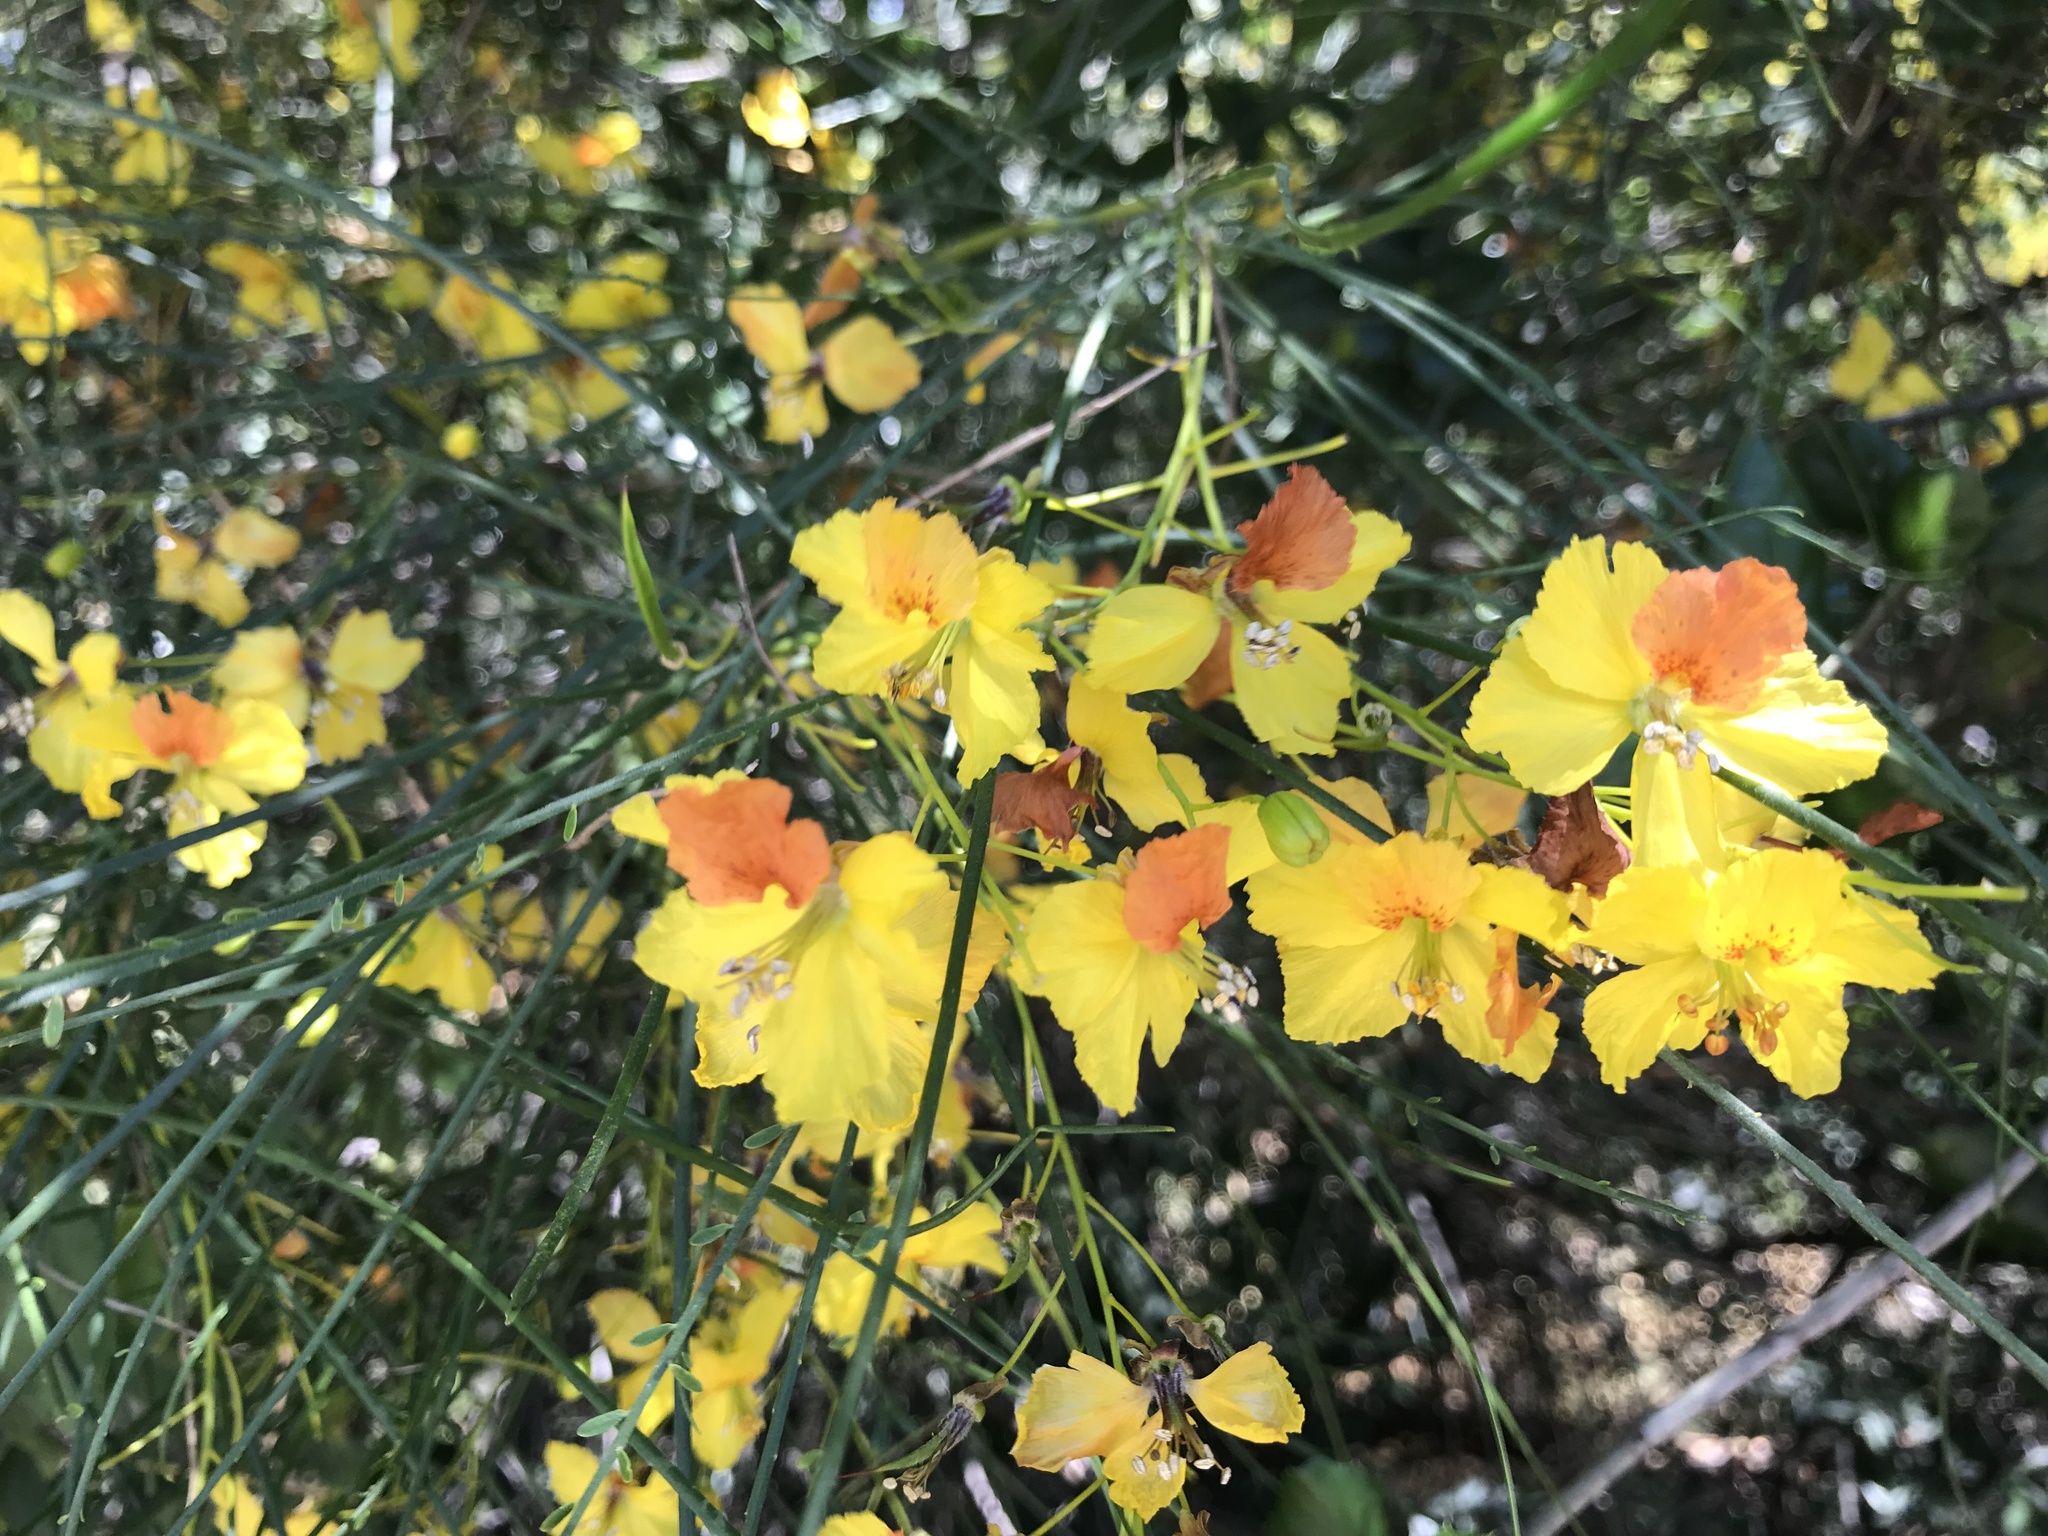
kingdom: Plantae
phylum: Tracheophyta
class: Magnoliopsida
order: Fabales
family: Fabaceae
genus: Parkinsonia
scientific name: Parkinsonia aculeata
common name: Jerusalem thorn
